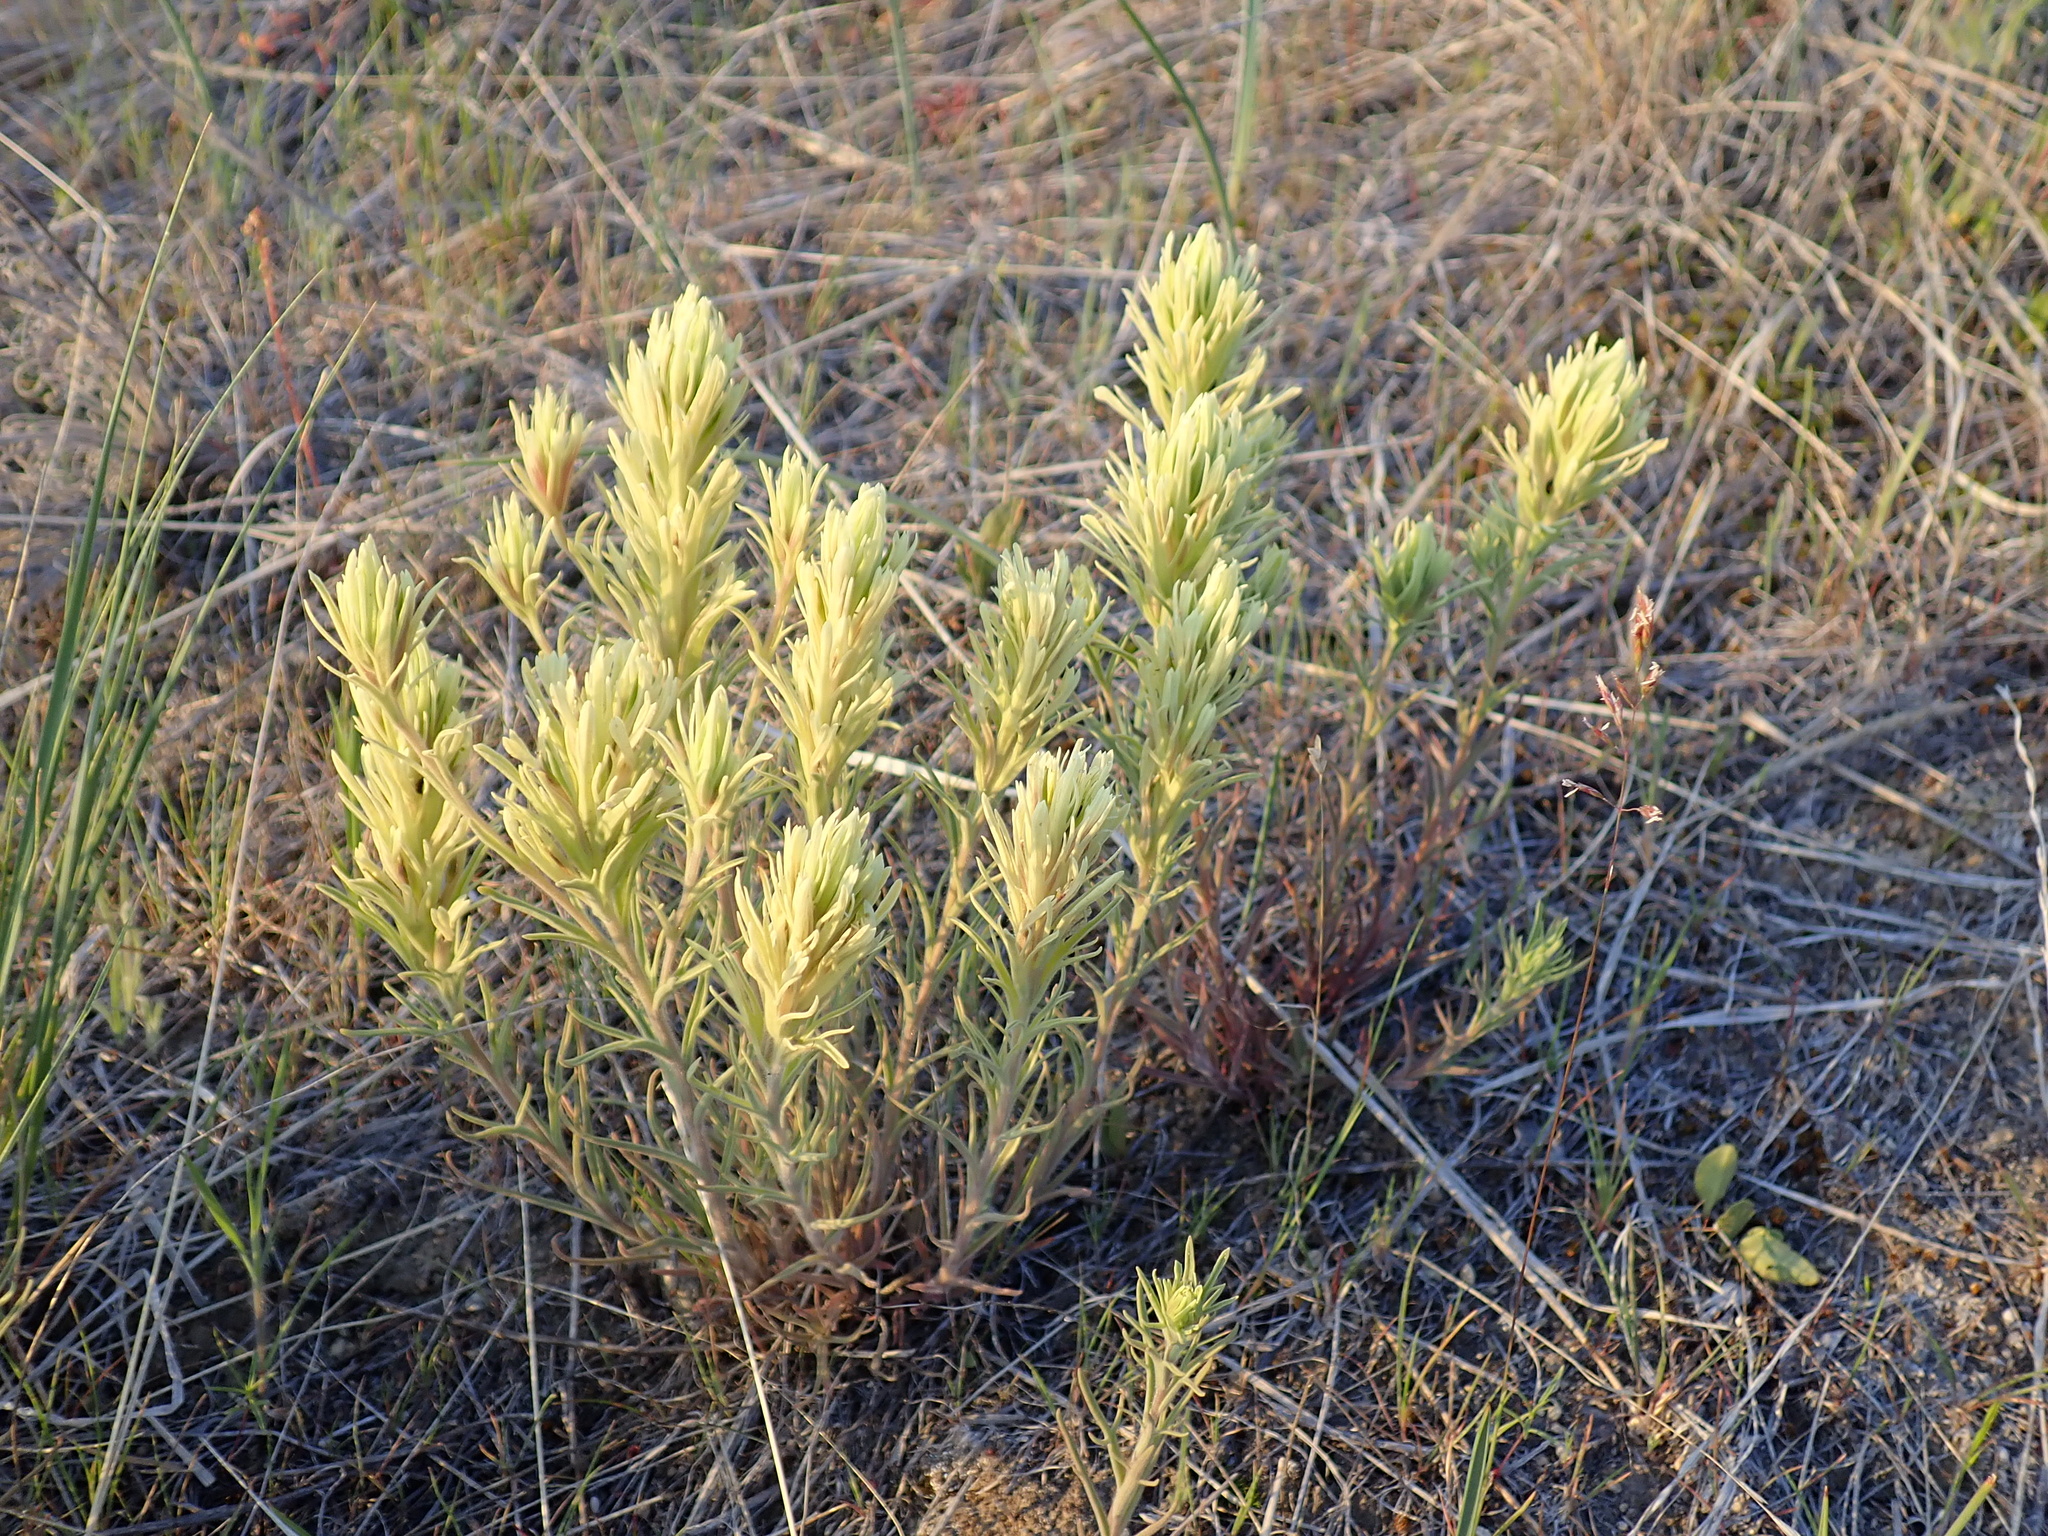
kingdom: Plantae
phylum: Tracheophyta
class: Magnoliopsida
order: Lamiales
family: Orobanchaceae
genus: Castilleja
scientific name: Castilleja thompsonii
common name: Thompson's paintbrush
